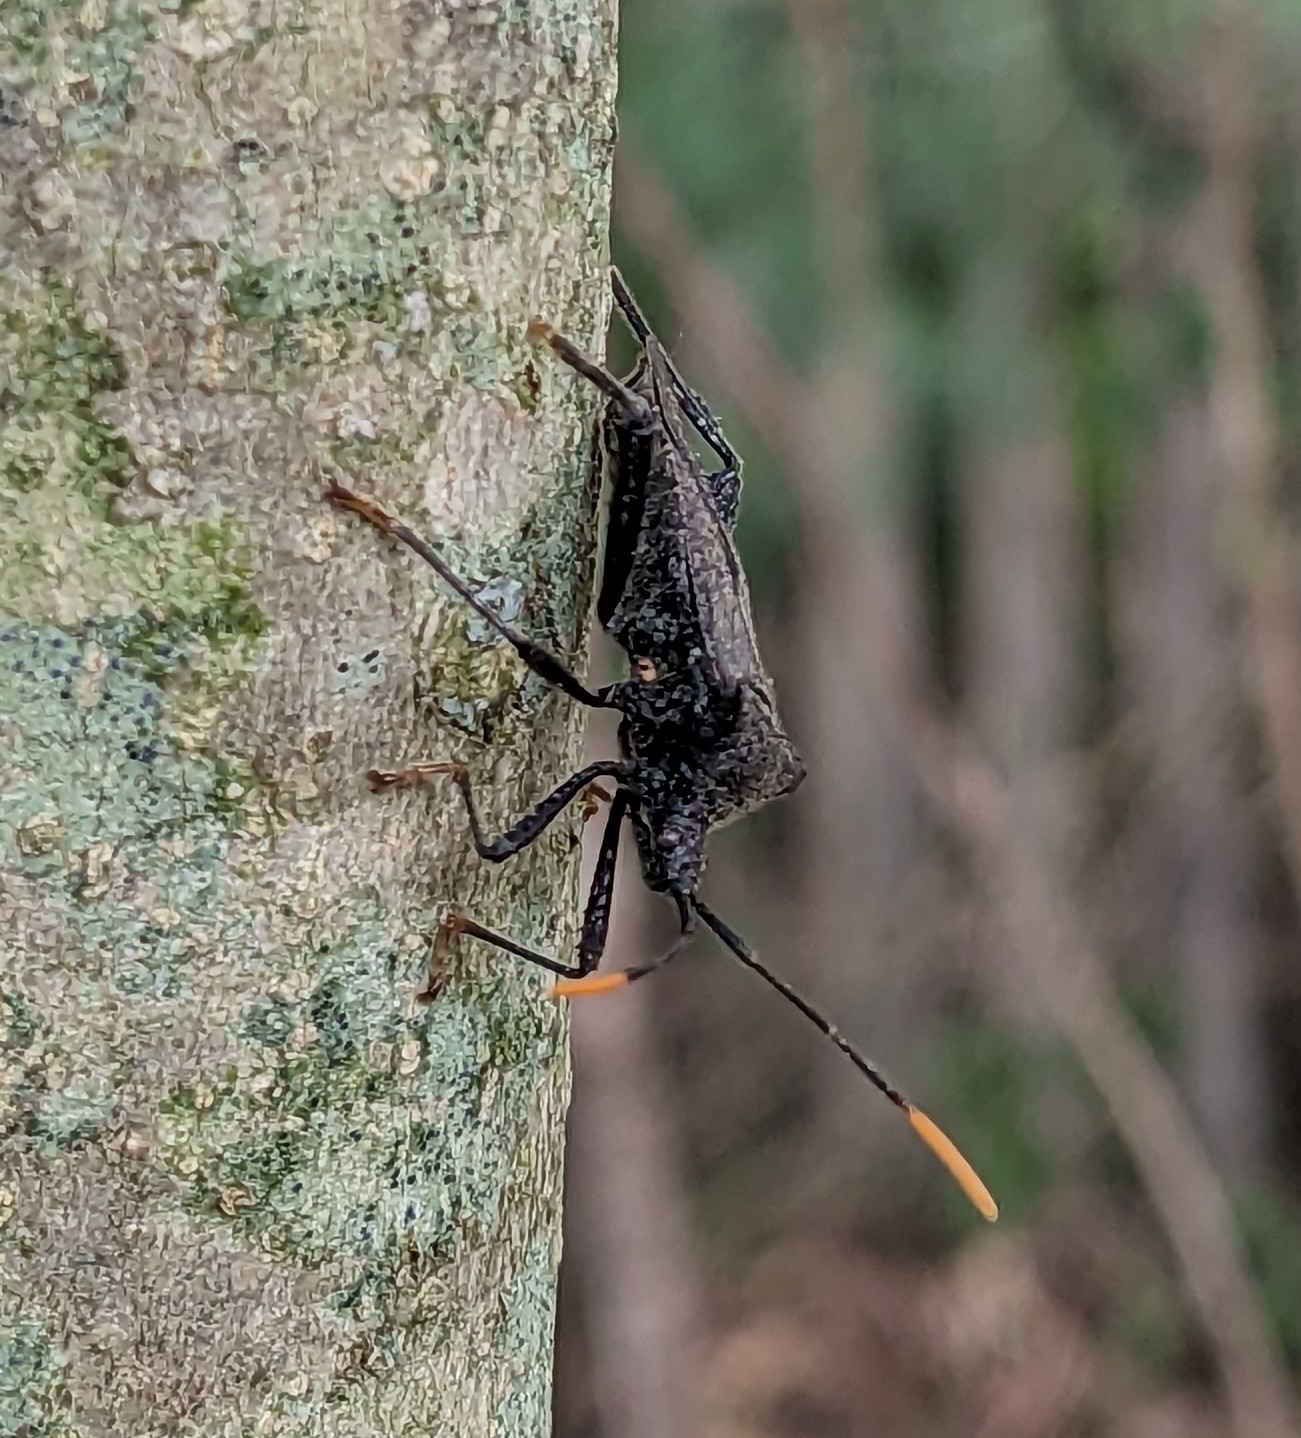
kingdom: Animalia
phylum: Arthropoda
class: Insecta
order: Hemiptera
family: Coreidae
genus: Acanthocephala
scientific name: Acanthocephala terminalis
